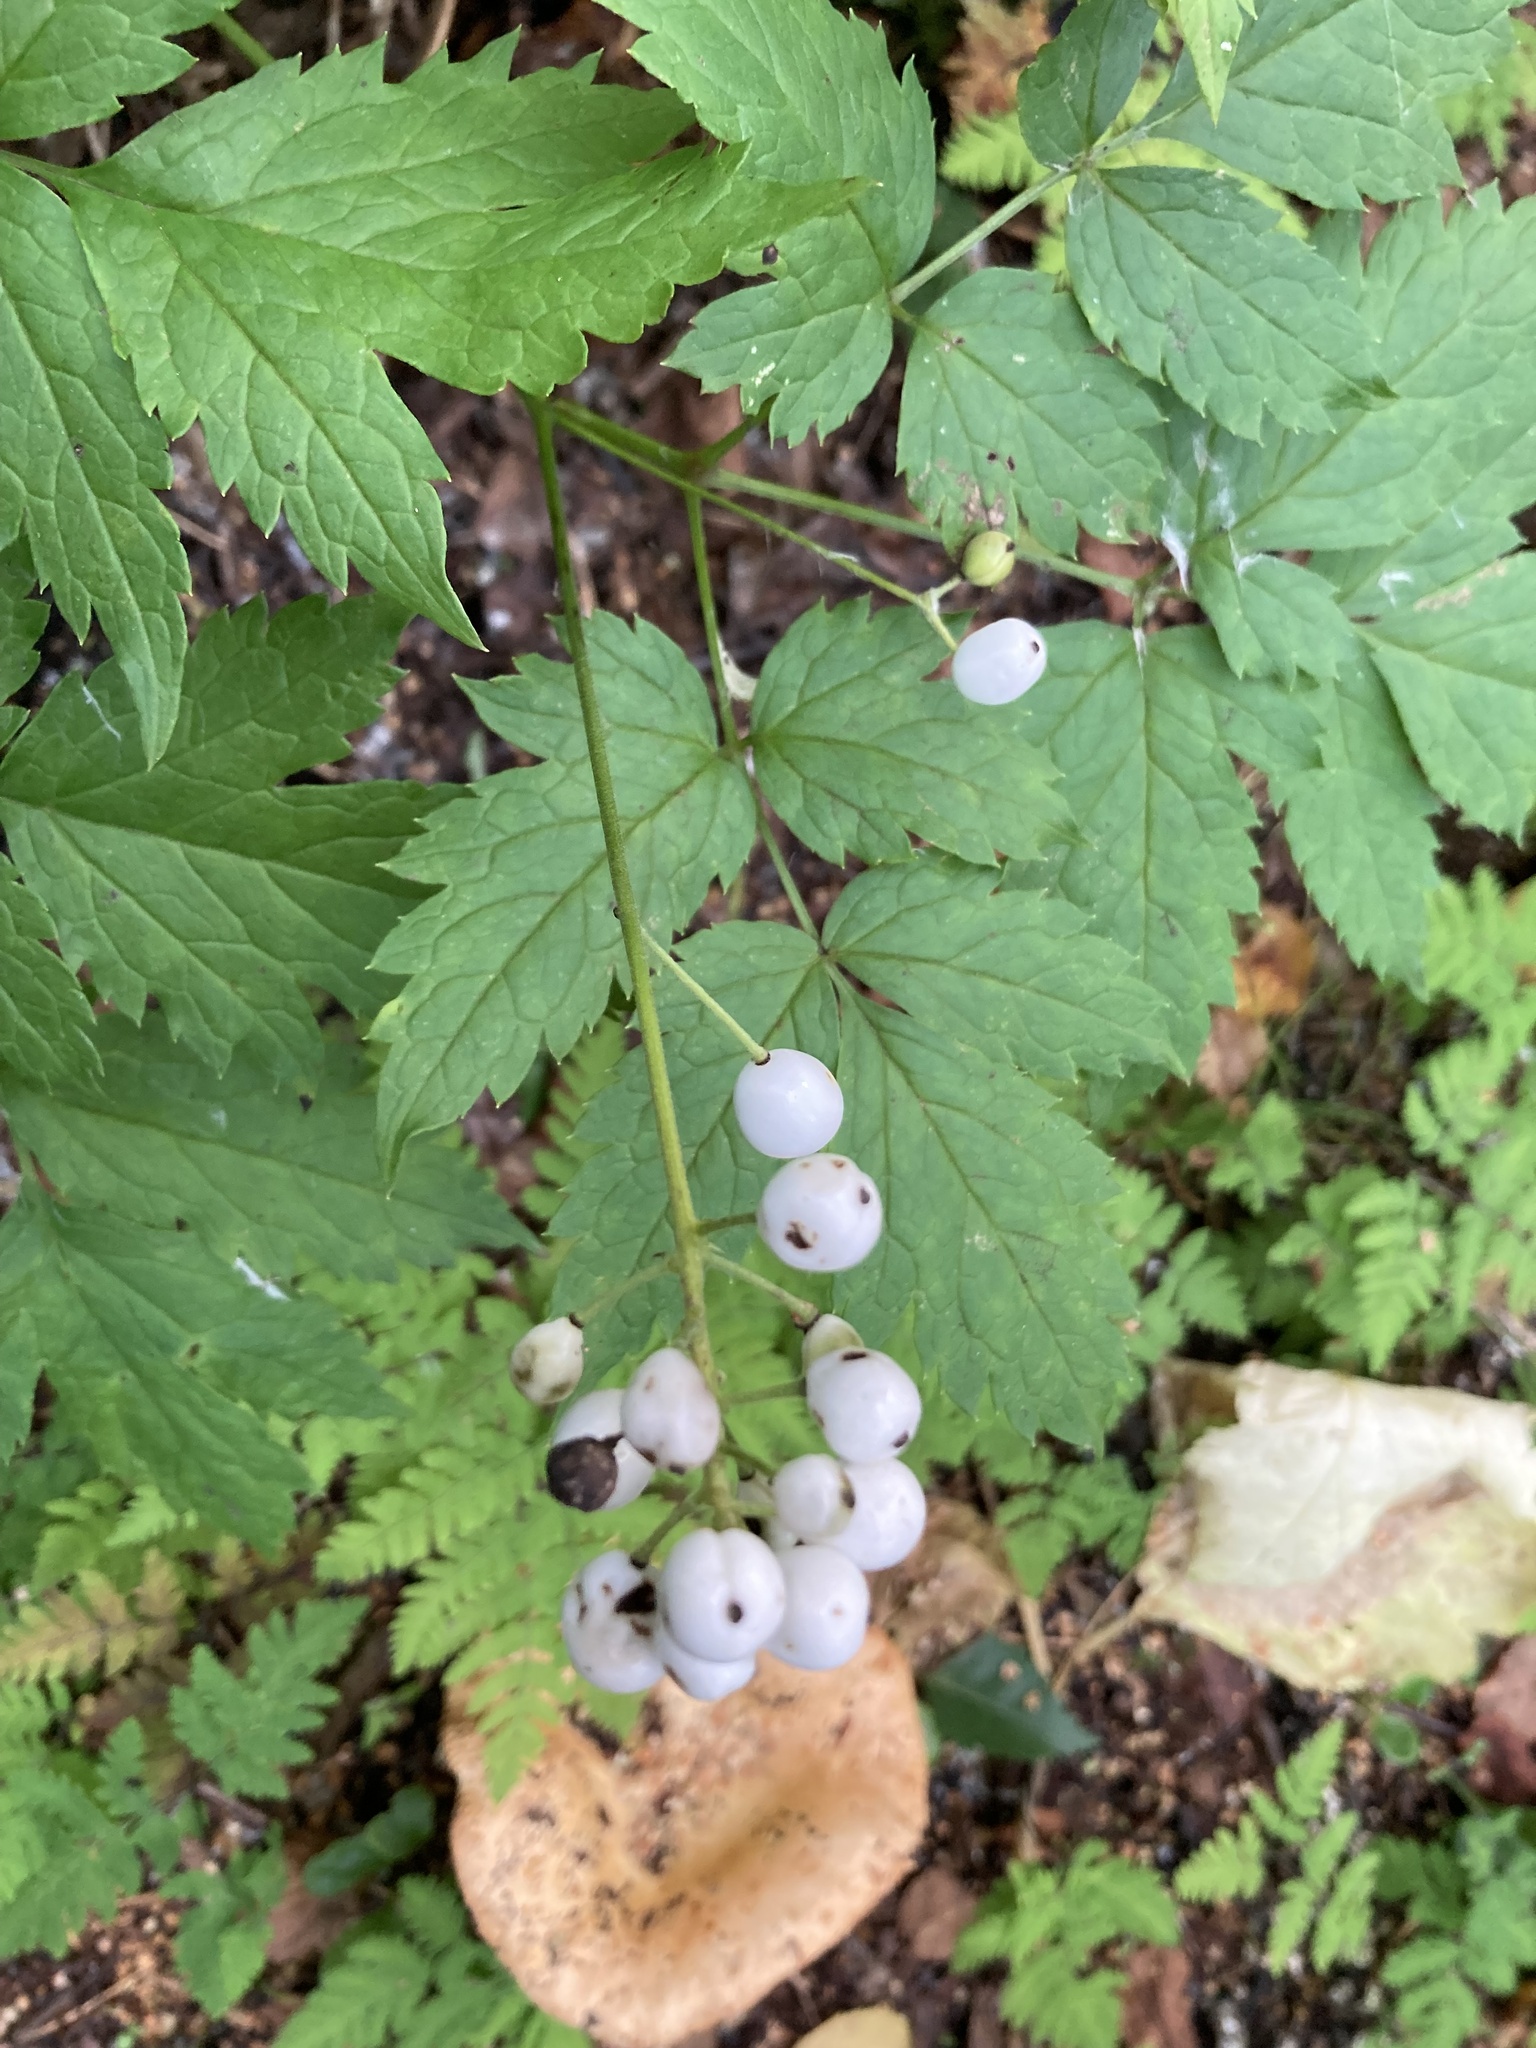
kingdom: Plantae
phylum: Tracheophyta
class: Magnoliopsida
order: Ranunculales
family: Ranunculaceae
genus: Actaea
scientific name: Actaea rubra
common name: Red baneberry
